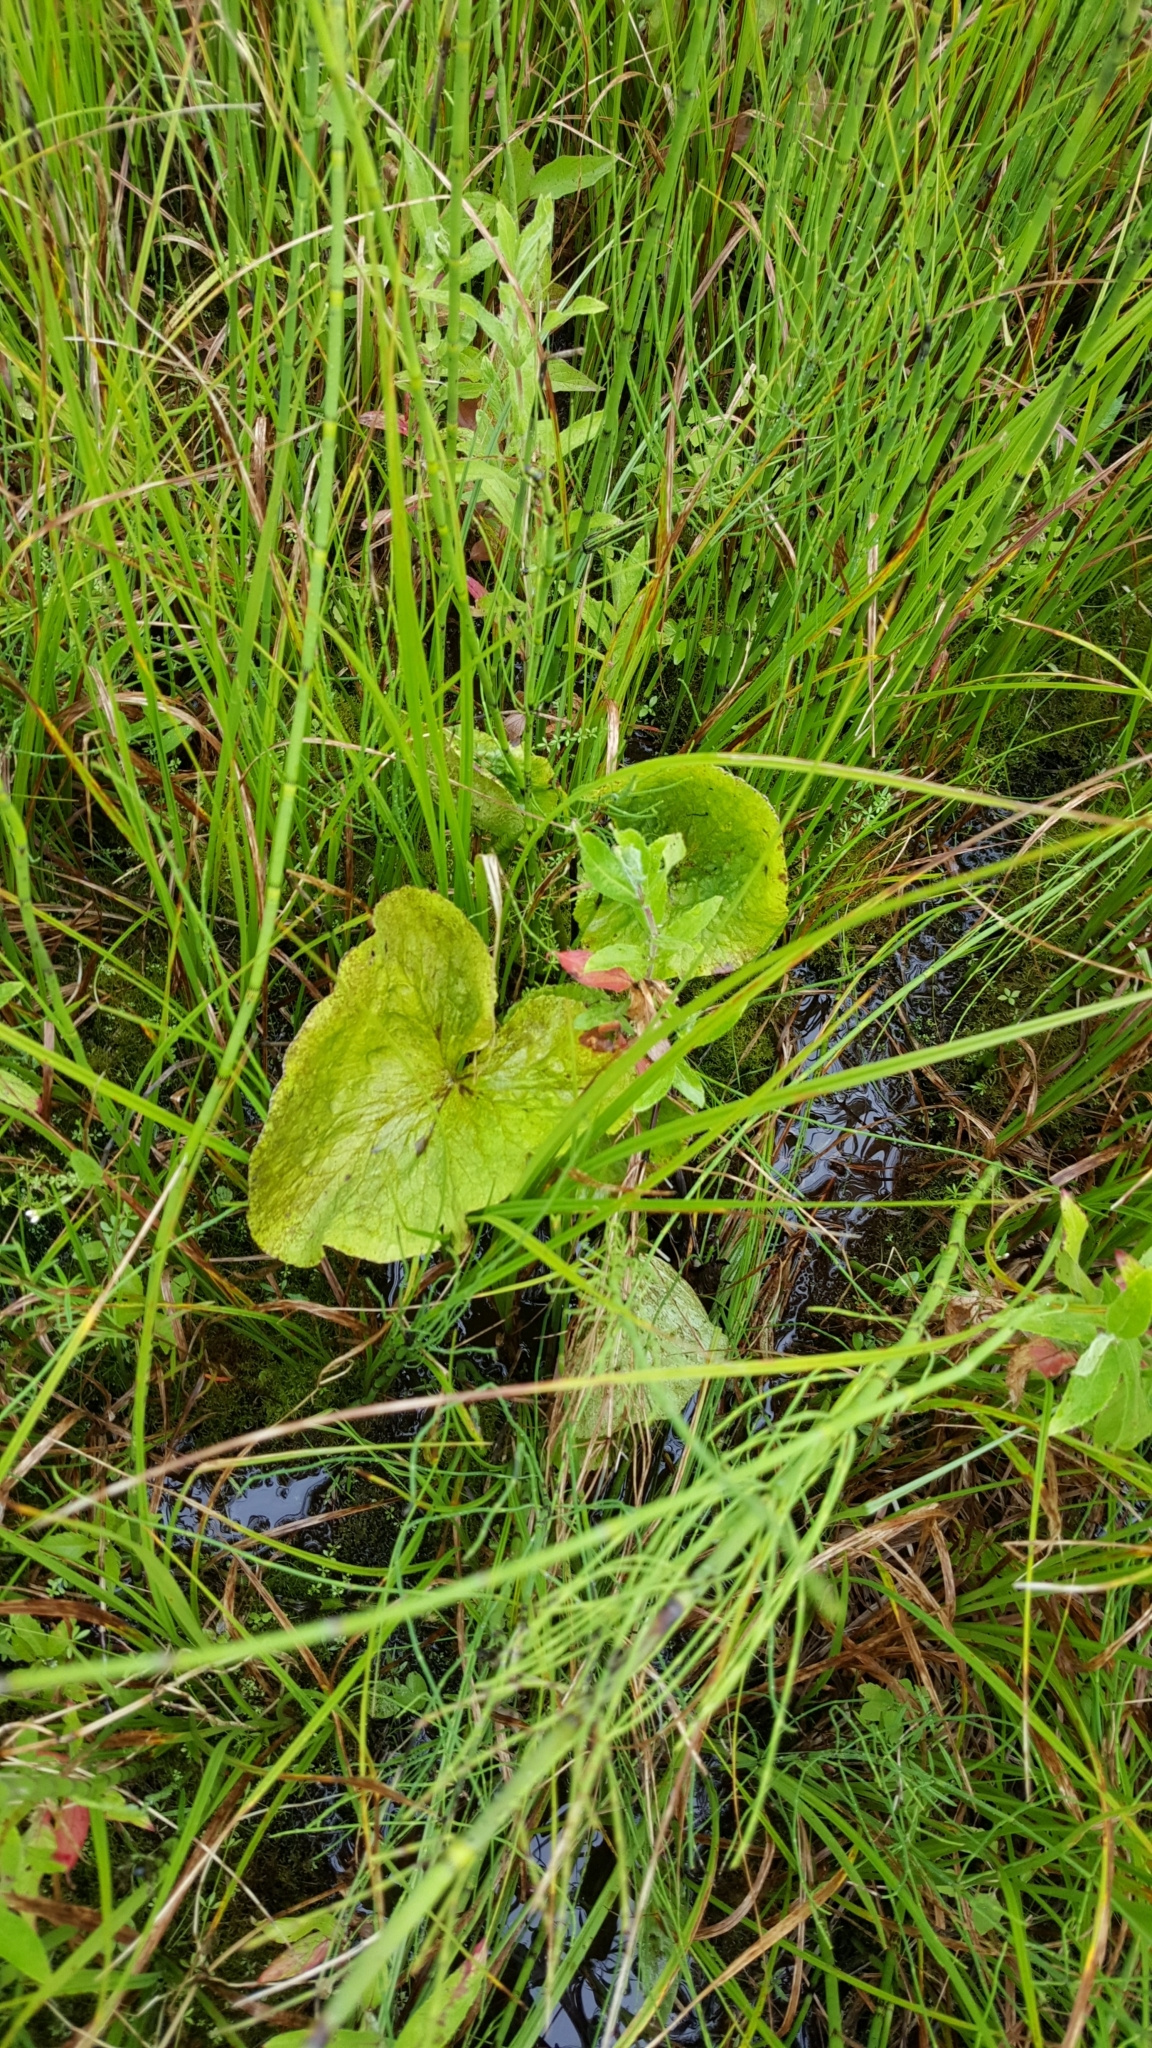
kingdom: Plantae
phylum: Tracheophyta
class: Magnoliopsida
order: Ranunculales
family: Ranunculaceae
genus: Caltha
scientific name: Caltha palustris
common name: Marsh marigold
